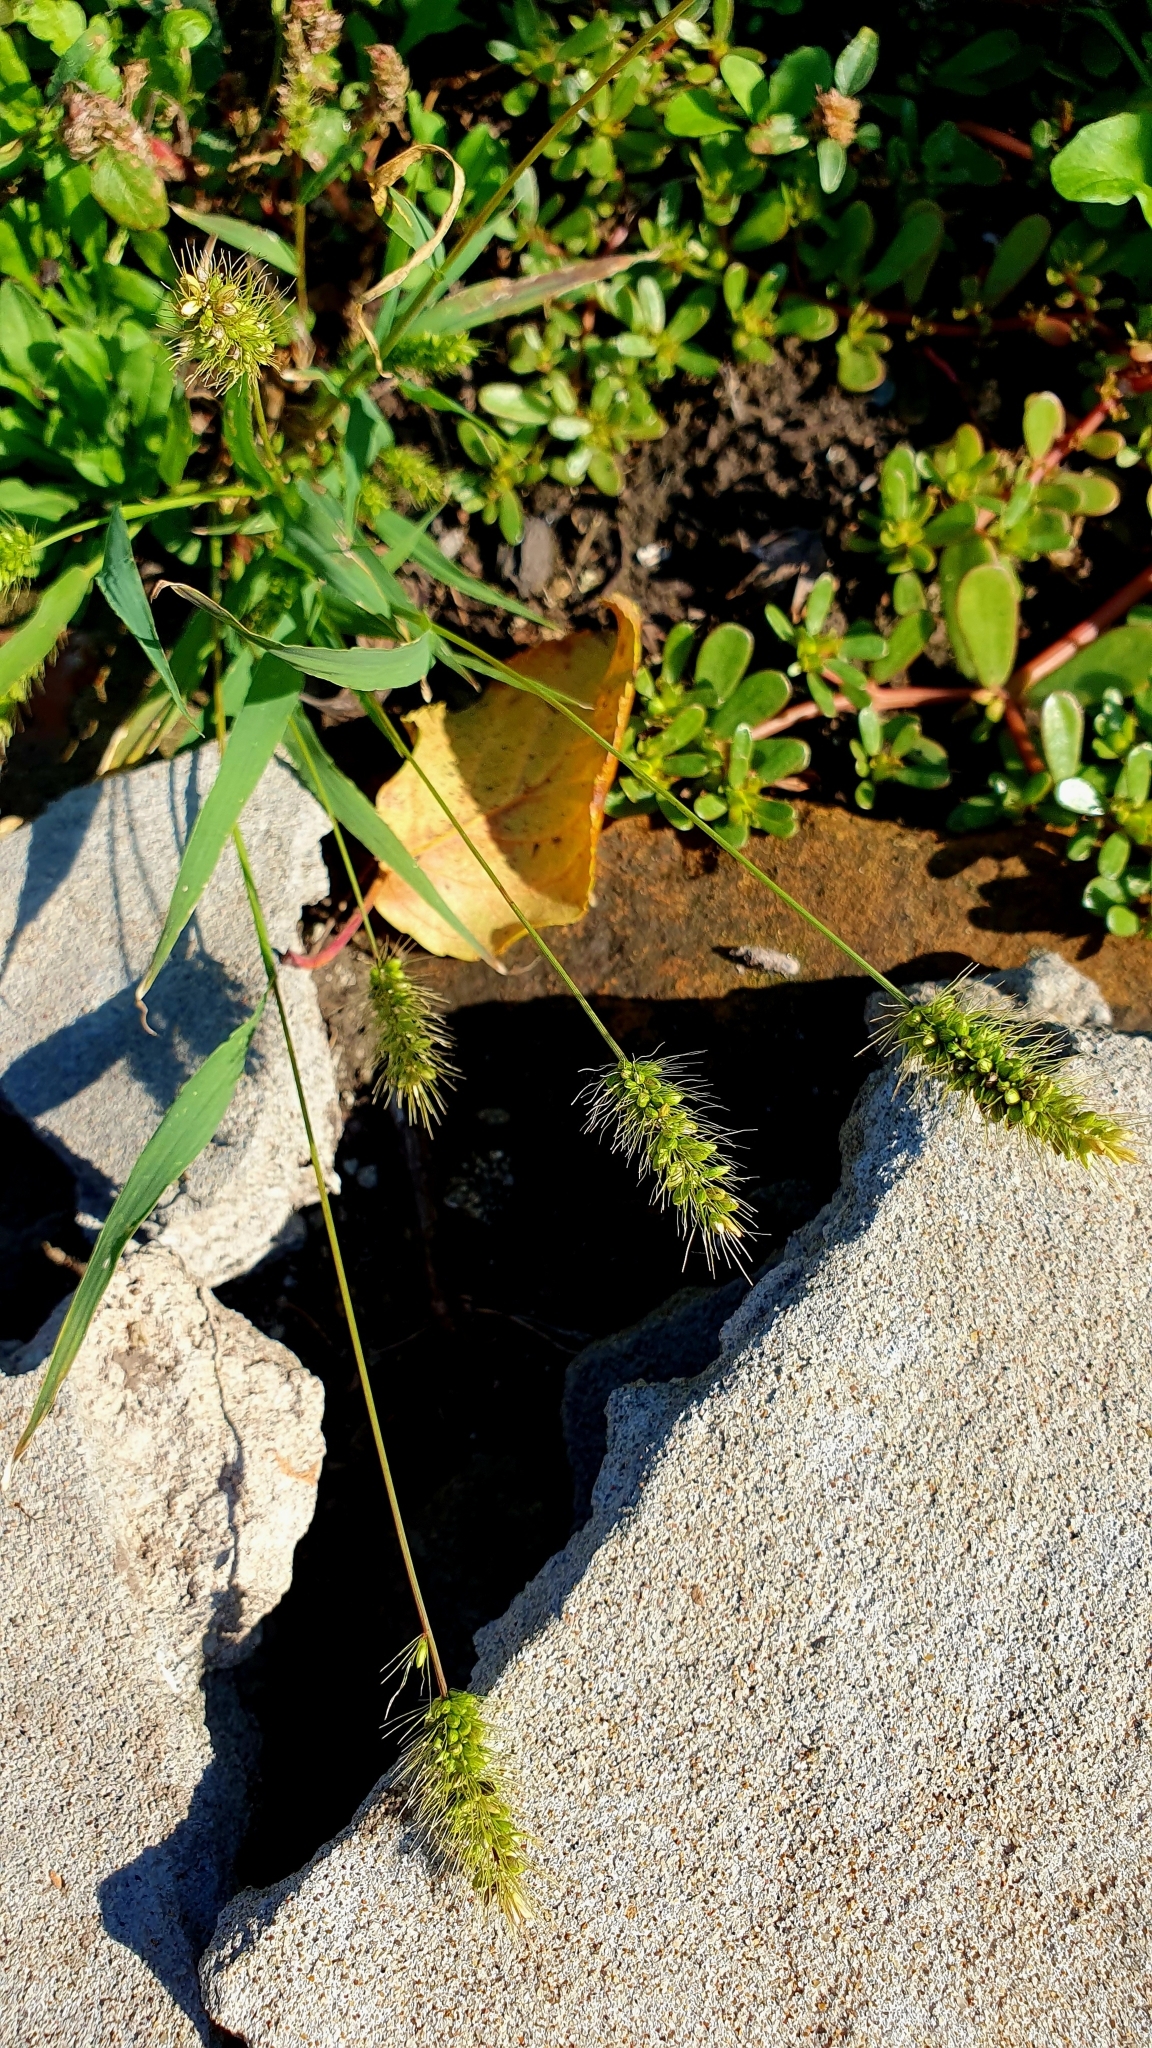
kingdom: Plantae
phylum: Tracheophyta
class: Liliopsida
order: Poales
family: Poaceae
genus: Setaria
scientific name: Setaria viridis
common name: Green bristlegrass
